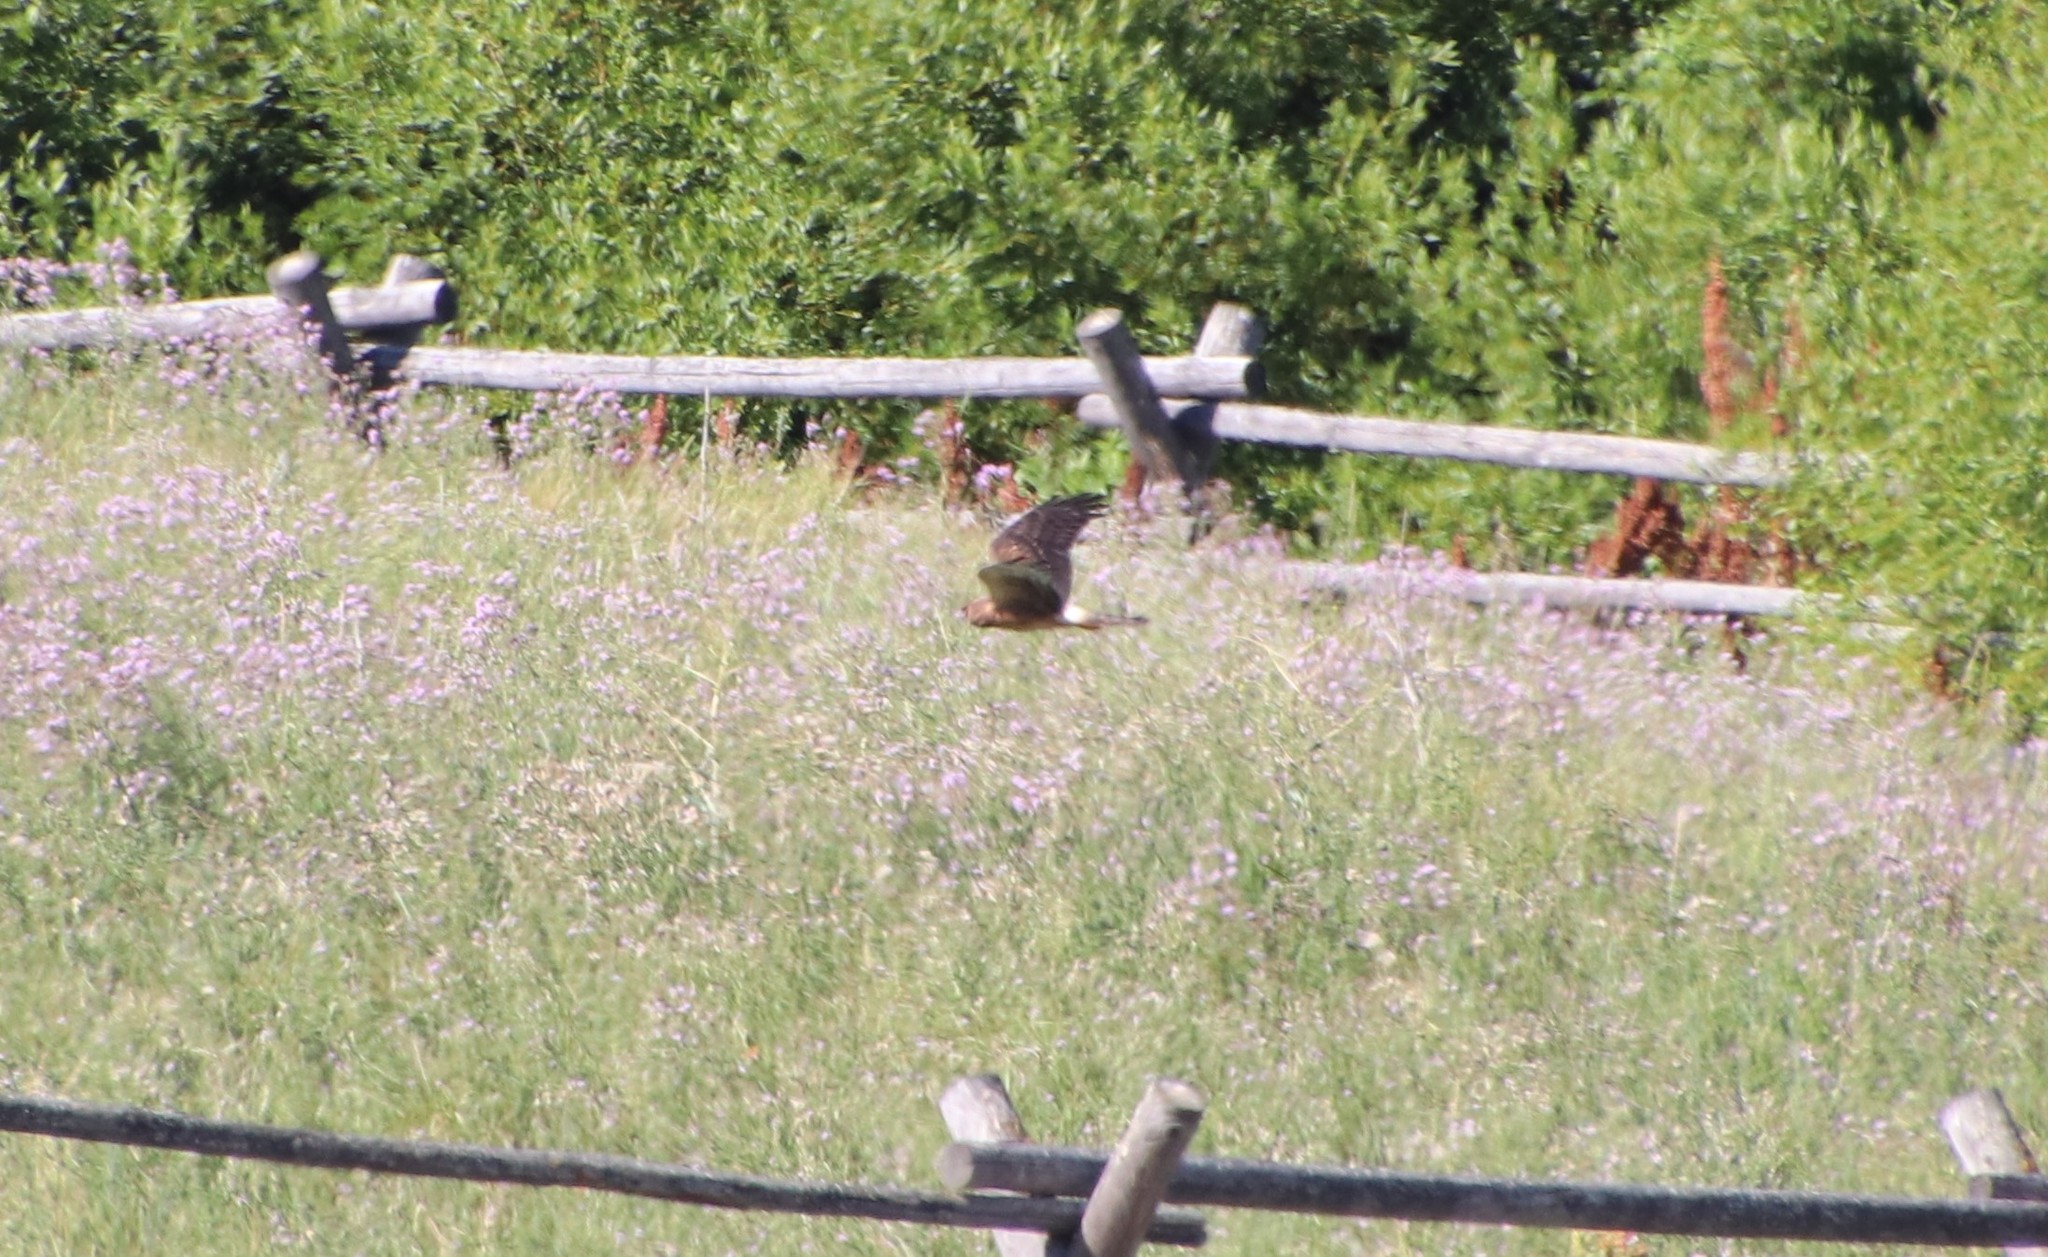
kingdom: Animalia
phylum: Chordata
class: Aves
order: Accipitriformes
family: Accipitridae
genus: Circus
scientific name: Circus cyaneus
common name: Hen harrier
